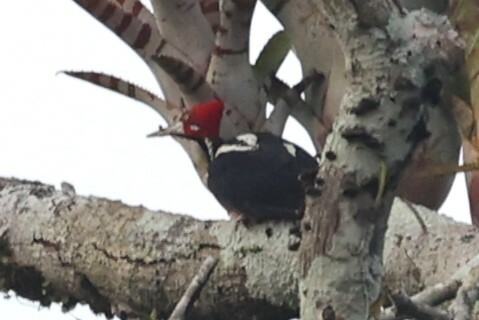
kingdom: Animalia
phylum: Chordata
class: Aves
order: Piciformes
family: Picidae
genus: Campephilus
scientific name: Campephilus melanoleucos
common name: Crimson-crested woodpecker
